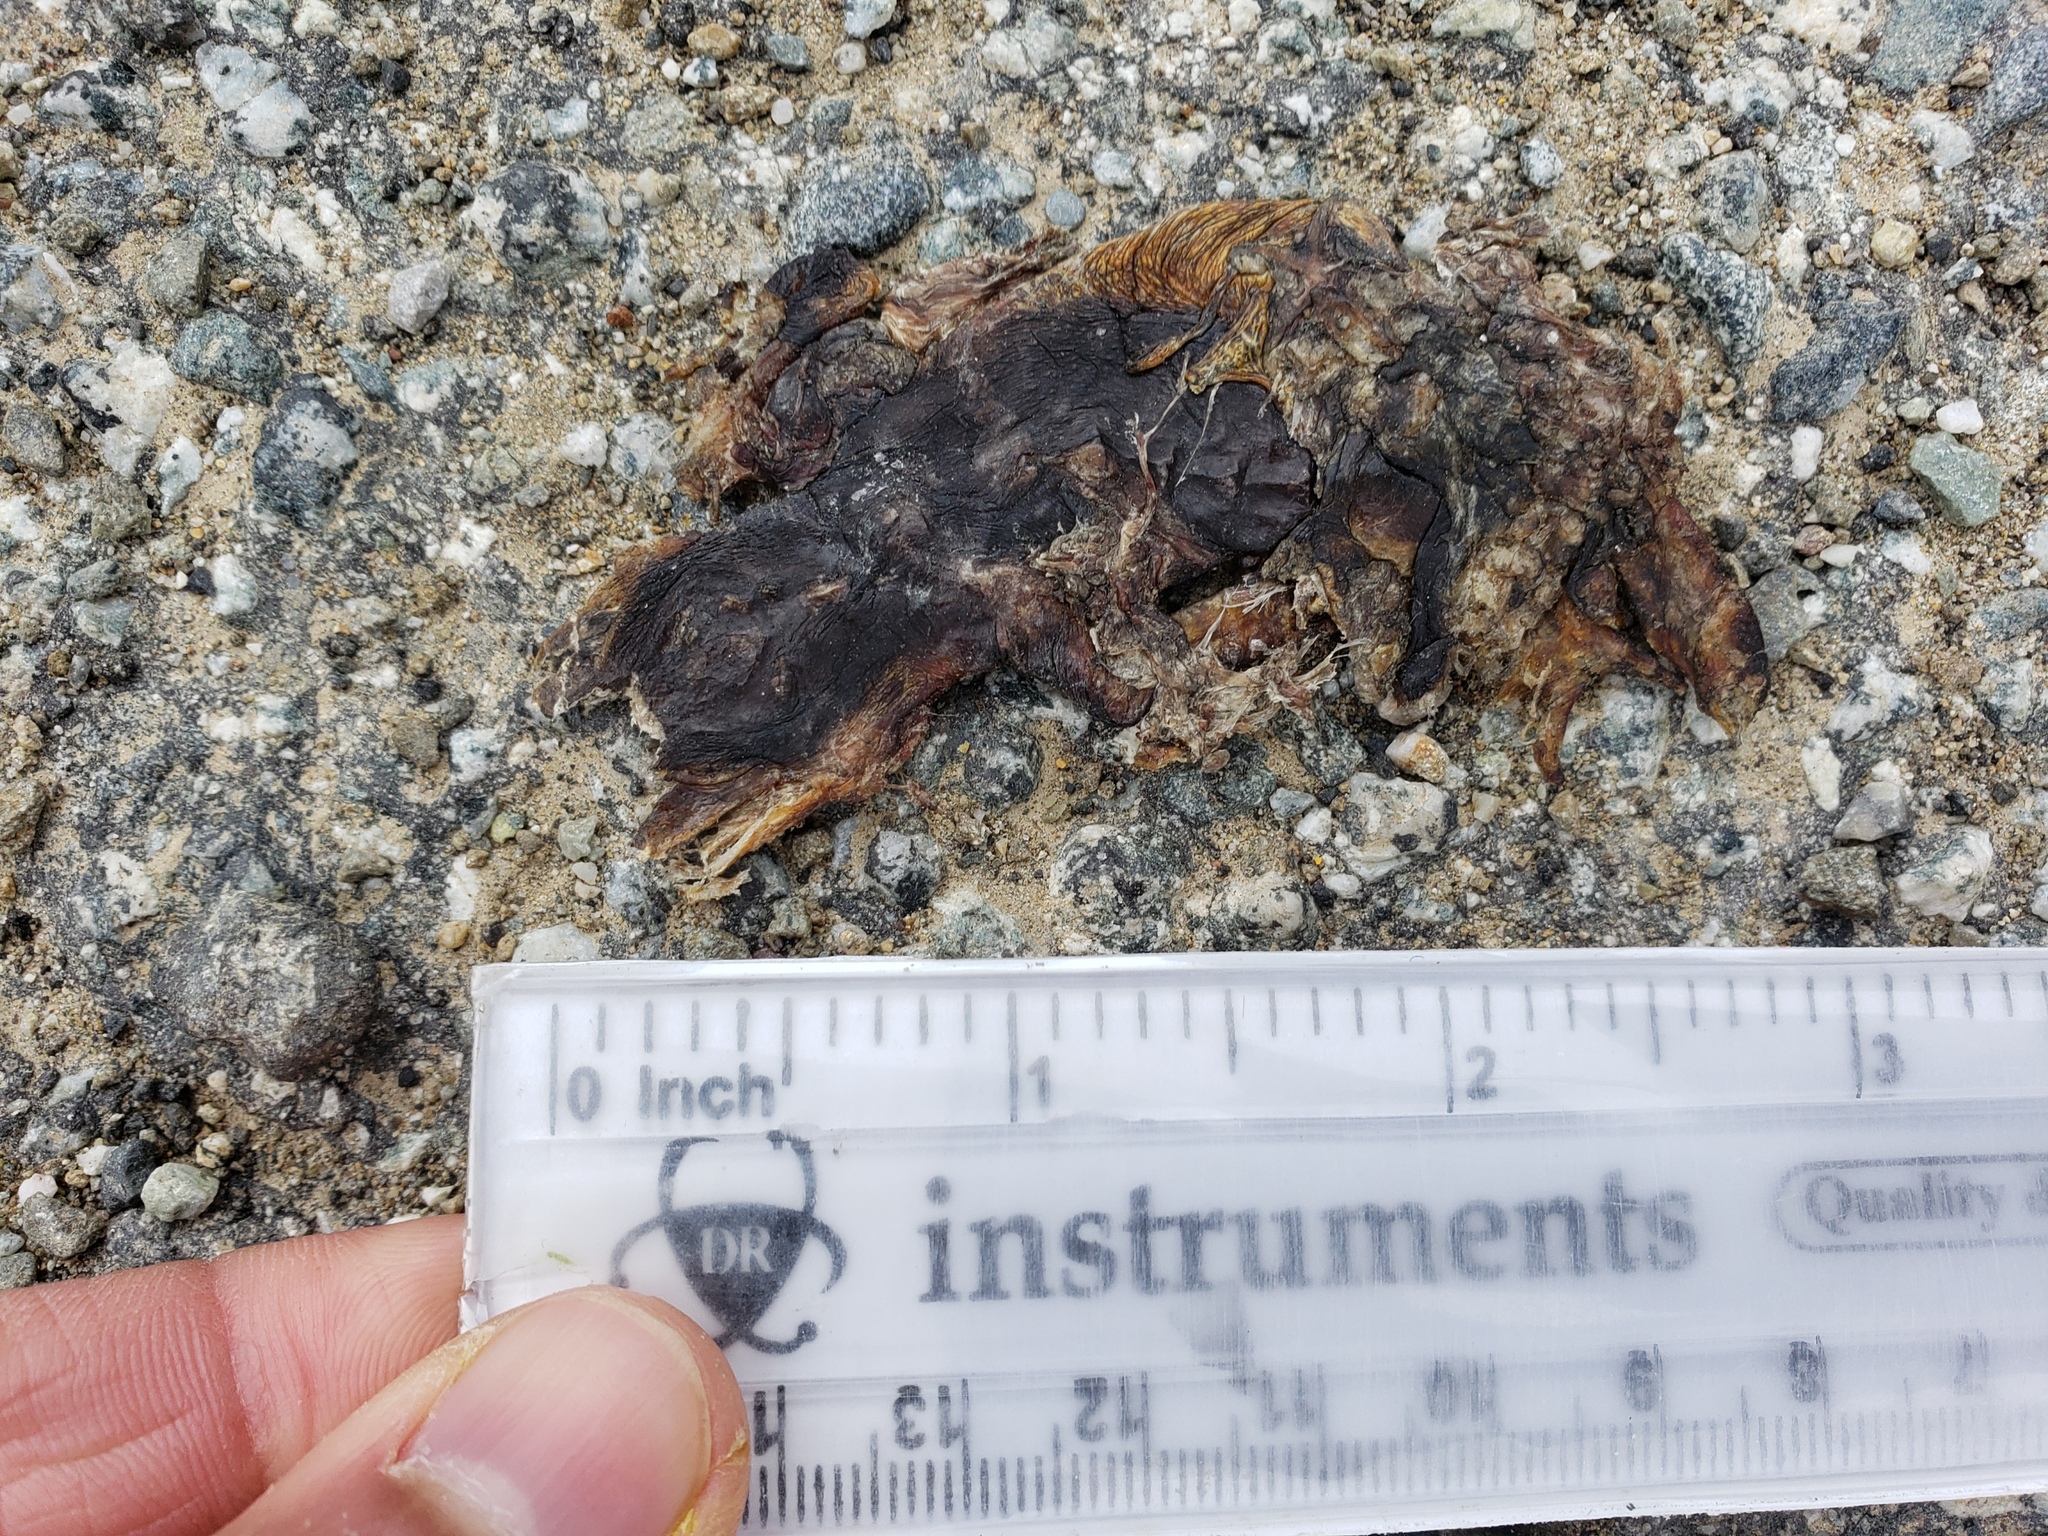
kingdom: Animalia
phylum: Chordata
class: Amphibia
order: Caudata
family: Salamandridae
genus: Taricha
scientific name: Taricha
